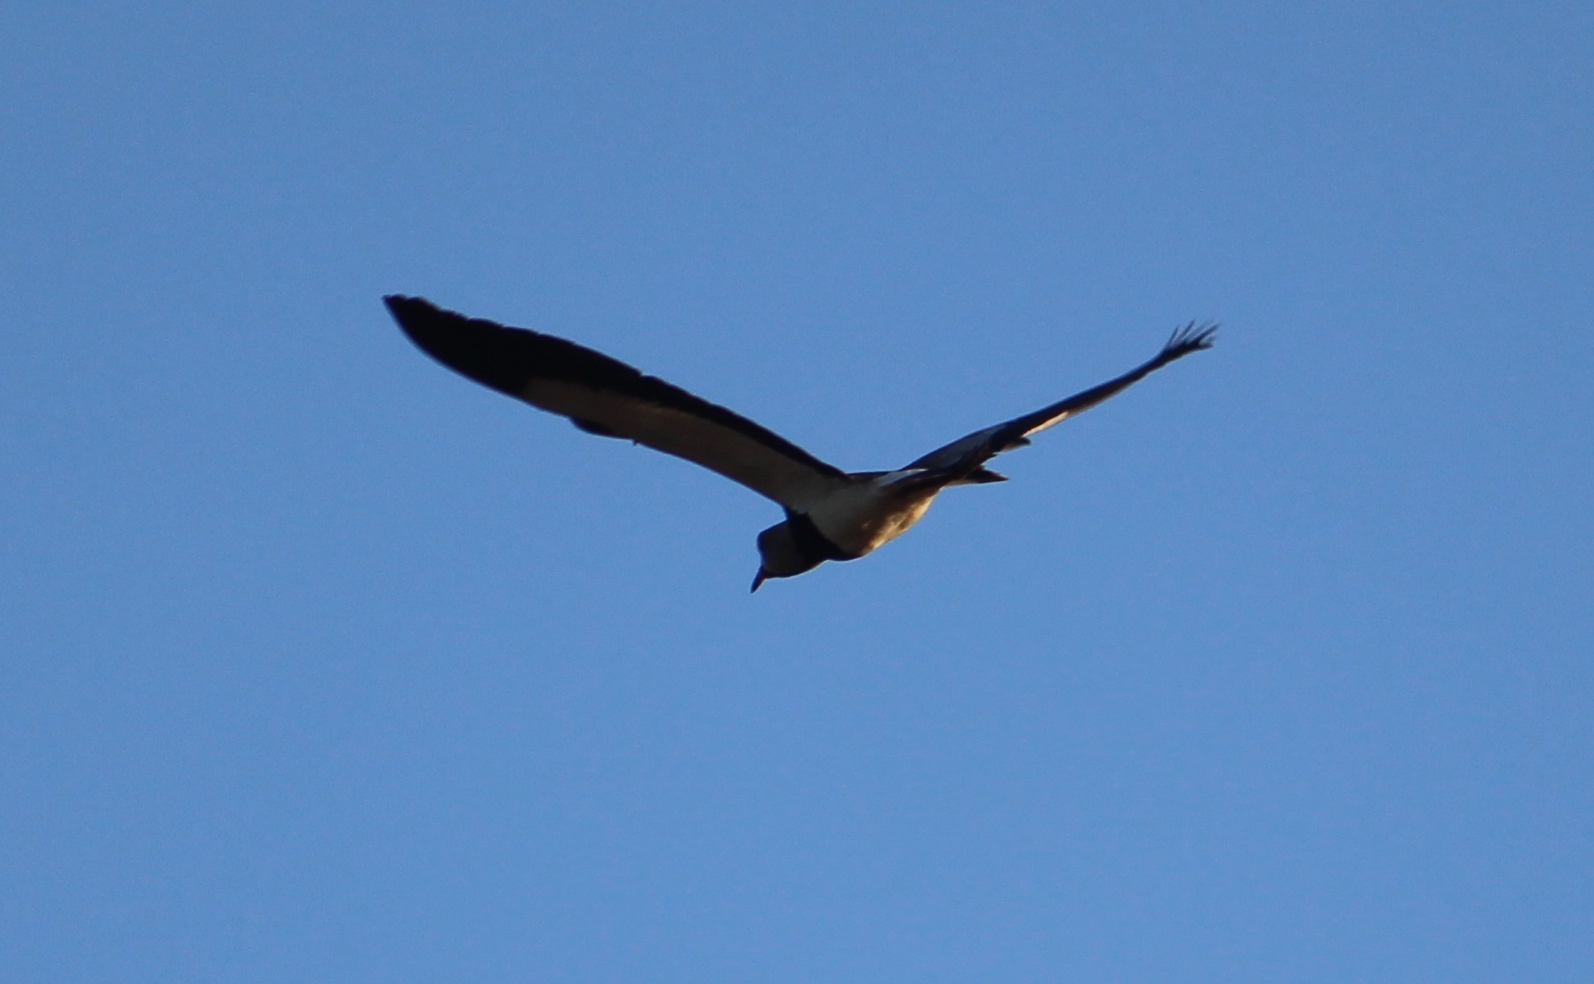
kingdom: Animalia
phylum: Chordata
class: Aves
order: Charadriiformes
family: Charadriidae
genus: Vanellus
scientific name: Vanellus chilensis
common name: Southern lapwing
